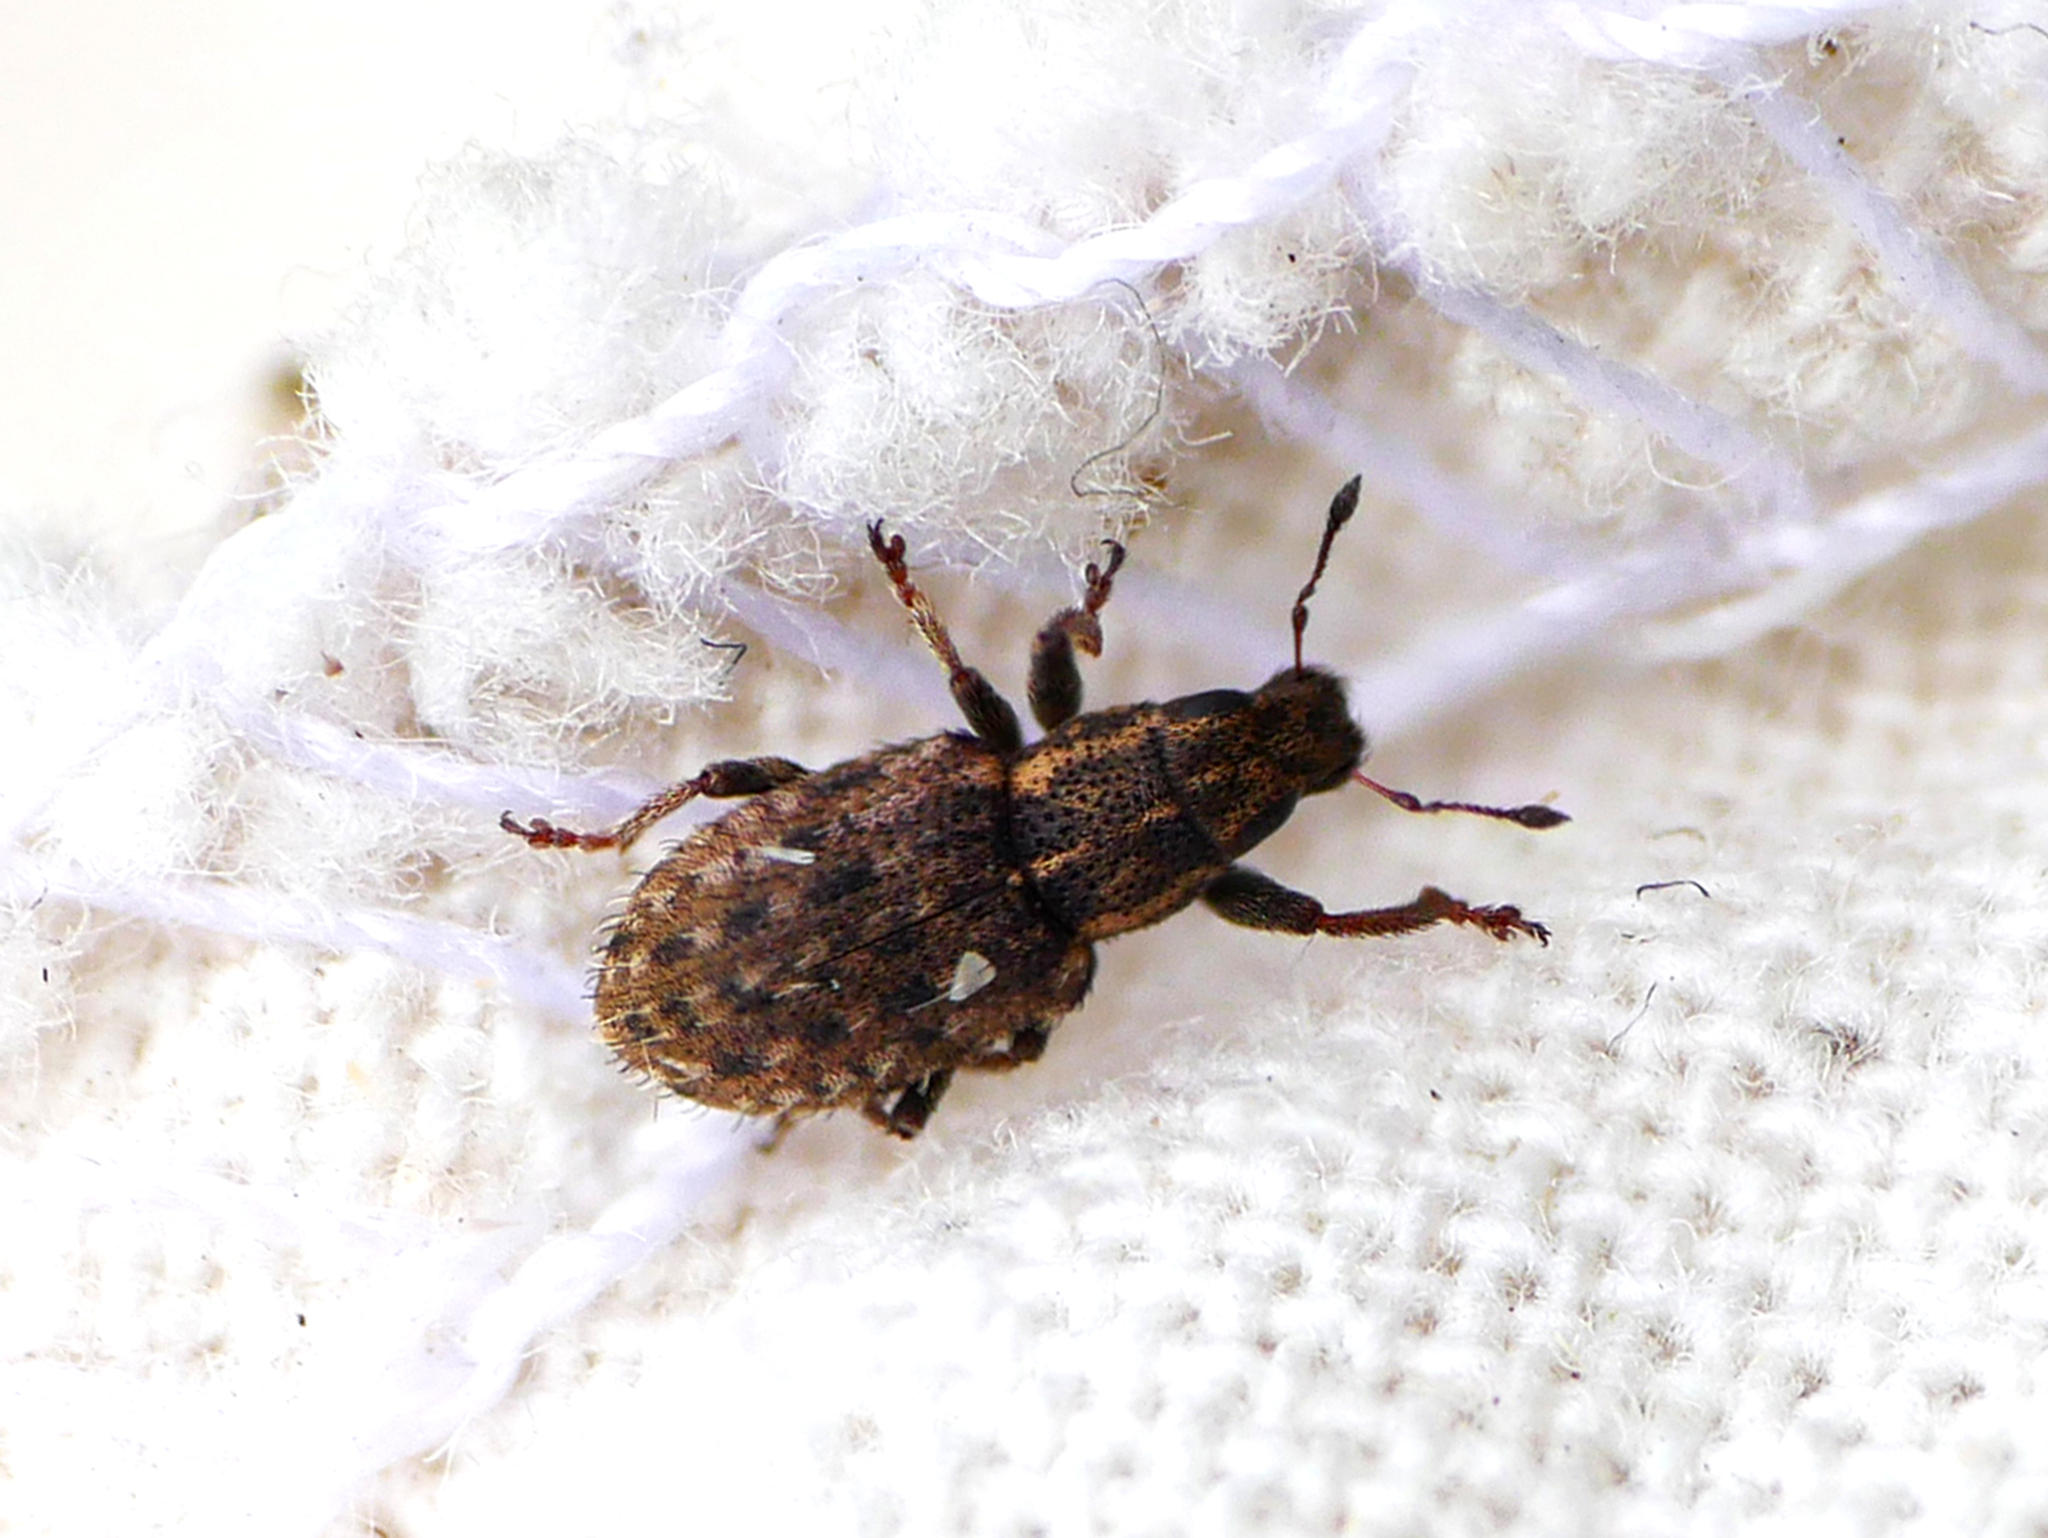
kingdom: Animalia
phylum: Arthropoda
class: Insecta
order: Coleoptera
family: Curculionidae
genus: Sitona
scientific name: Sitona hispidulus
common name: Clover weevil
